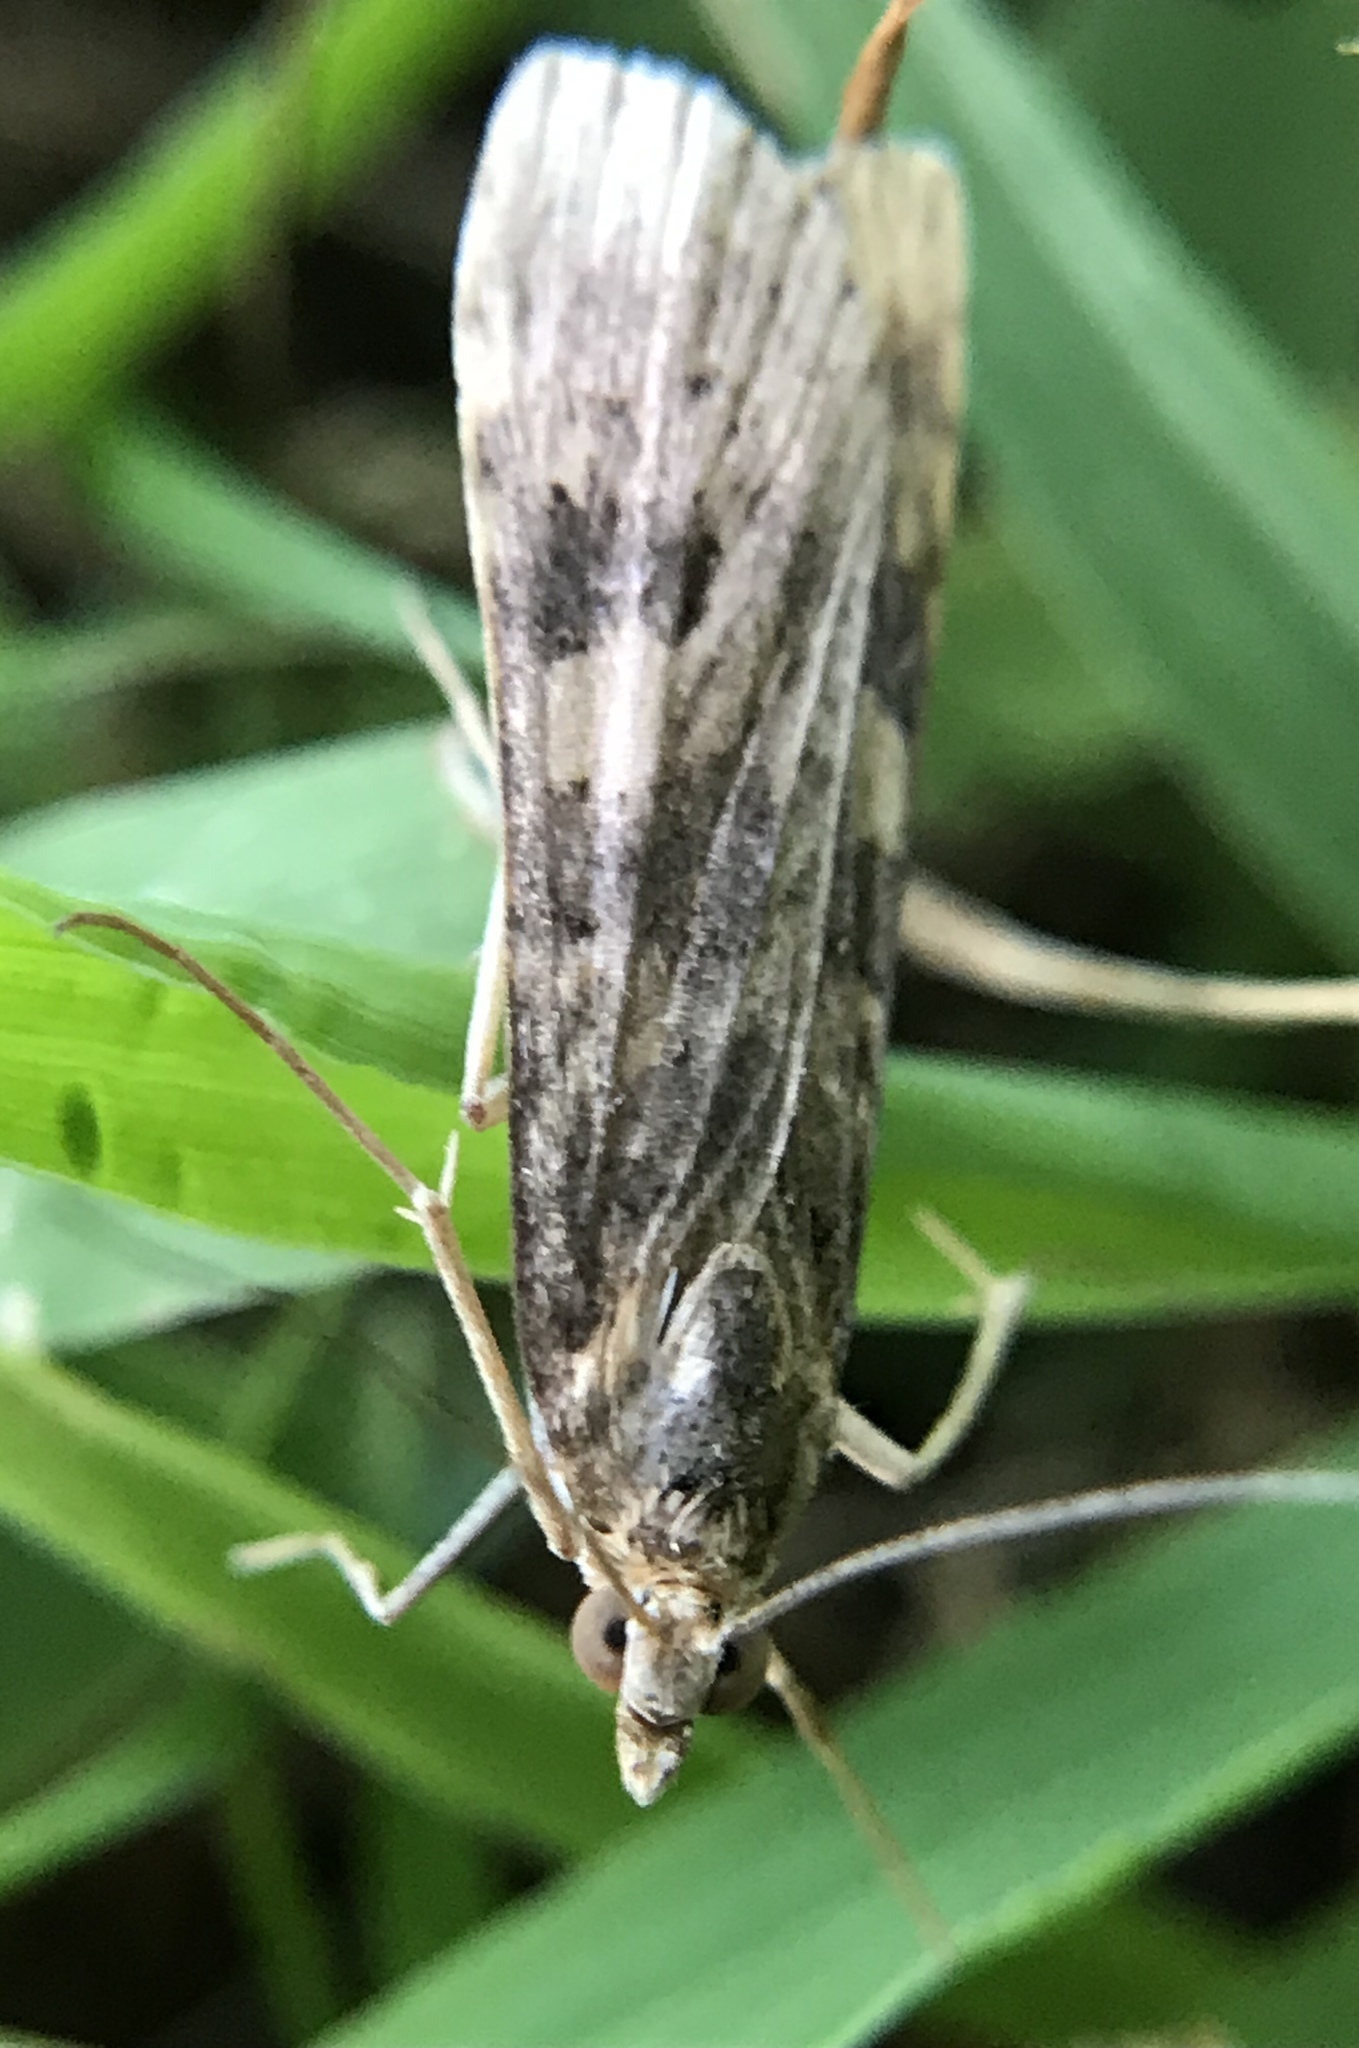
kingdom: Animalia
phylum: Arthropoda
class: Insecta
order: Lepidoptera
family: Crambidae
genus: Nomophila
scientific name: Nomophila nearctica
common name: American rush veneer
